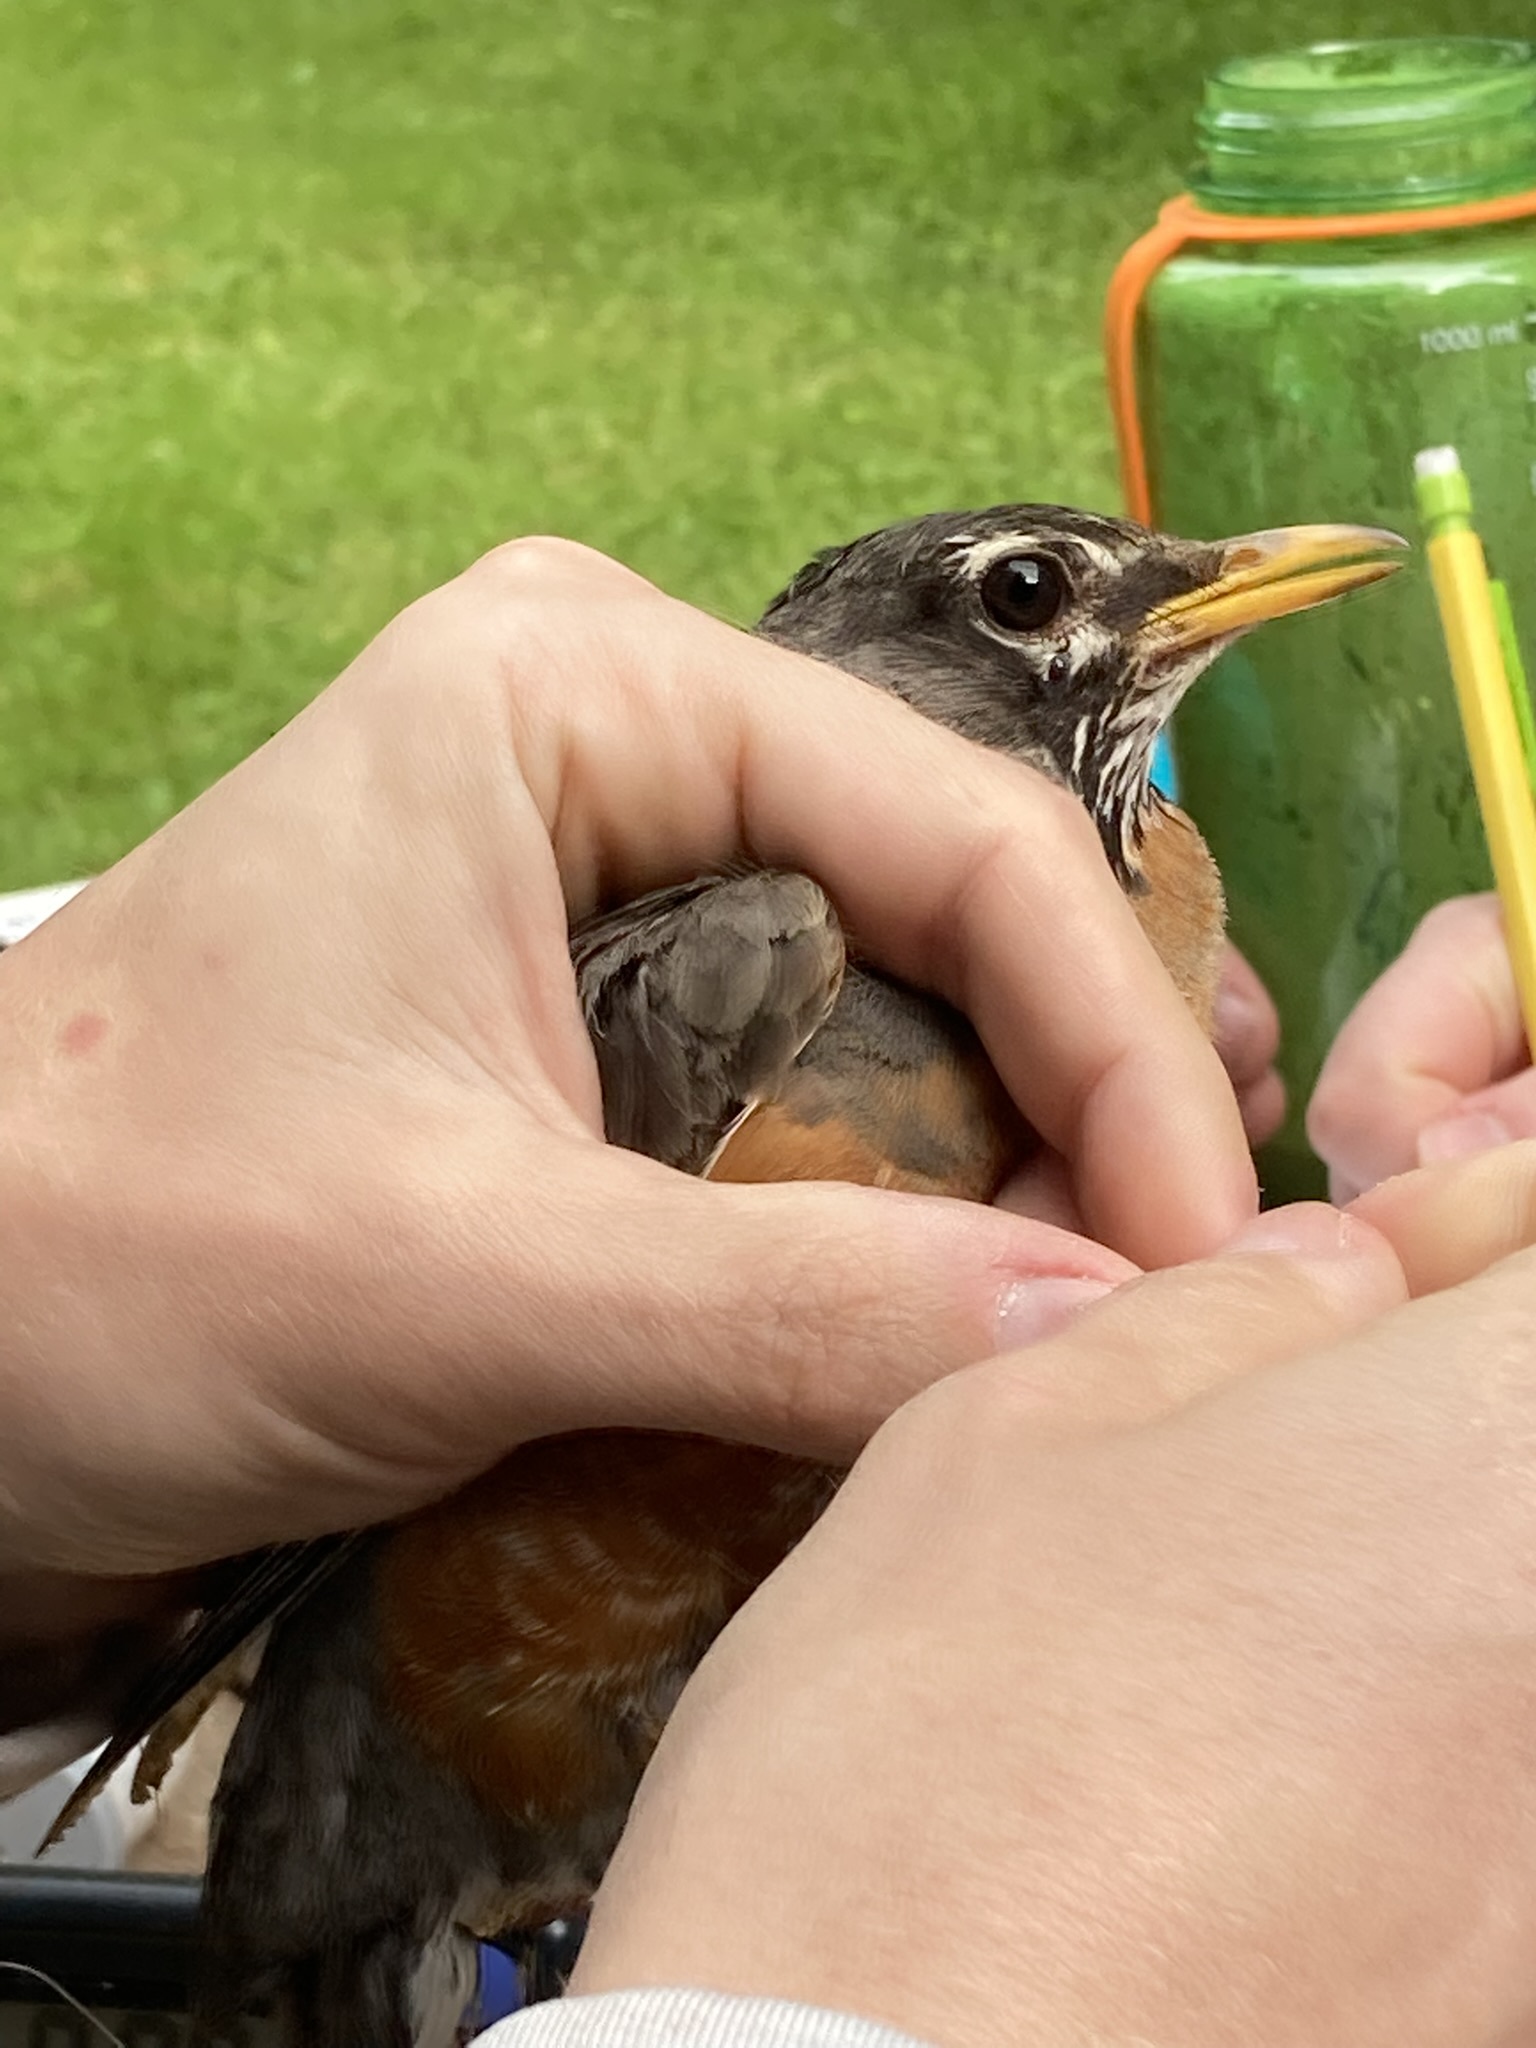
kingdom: Animalia
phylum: Chordata
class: Aves
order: Passeriformes
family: Turdidae
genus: Turdus
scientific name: Turdus migratorius
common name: American robin
